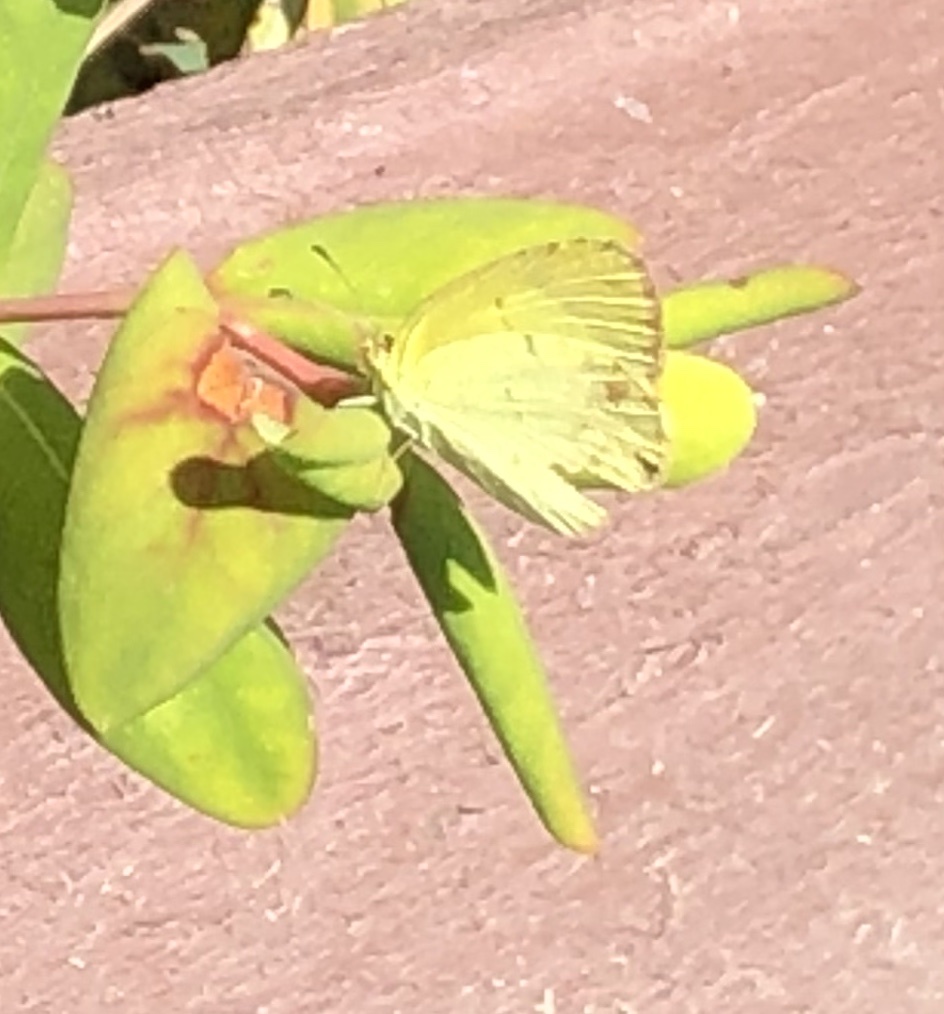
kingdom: Animalia
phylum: Arthropoda
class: Insecta
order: Lepidoptera
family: Pieridae
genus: Pyrisitia
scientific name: Pyrisitia lisa
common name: Little yellow
